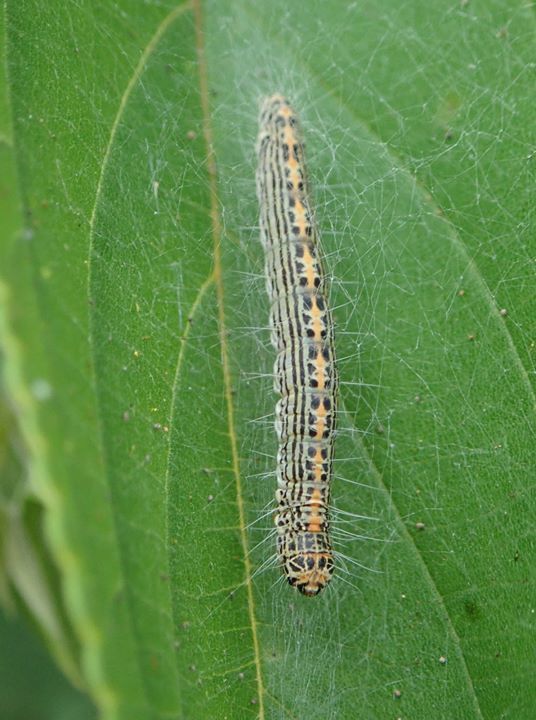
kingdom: Animalia
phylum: Arthropoda
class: Insecta
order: Lepidoptera
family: Pyralidae
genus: Teliphasa
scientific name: Teliphasa albifusa
